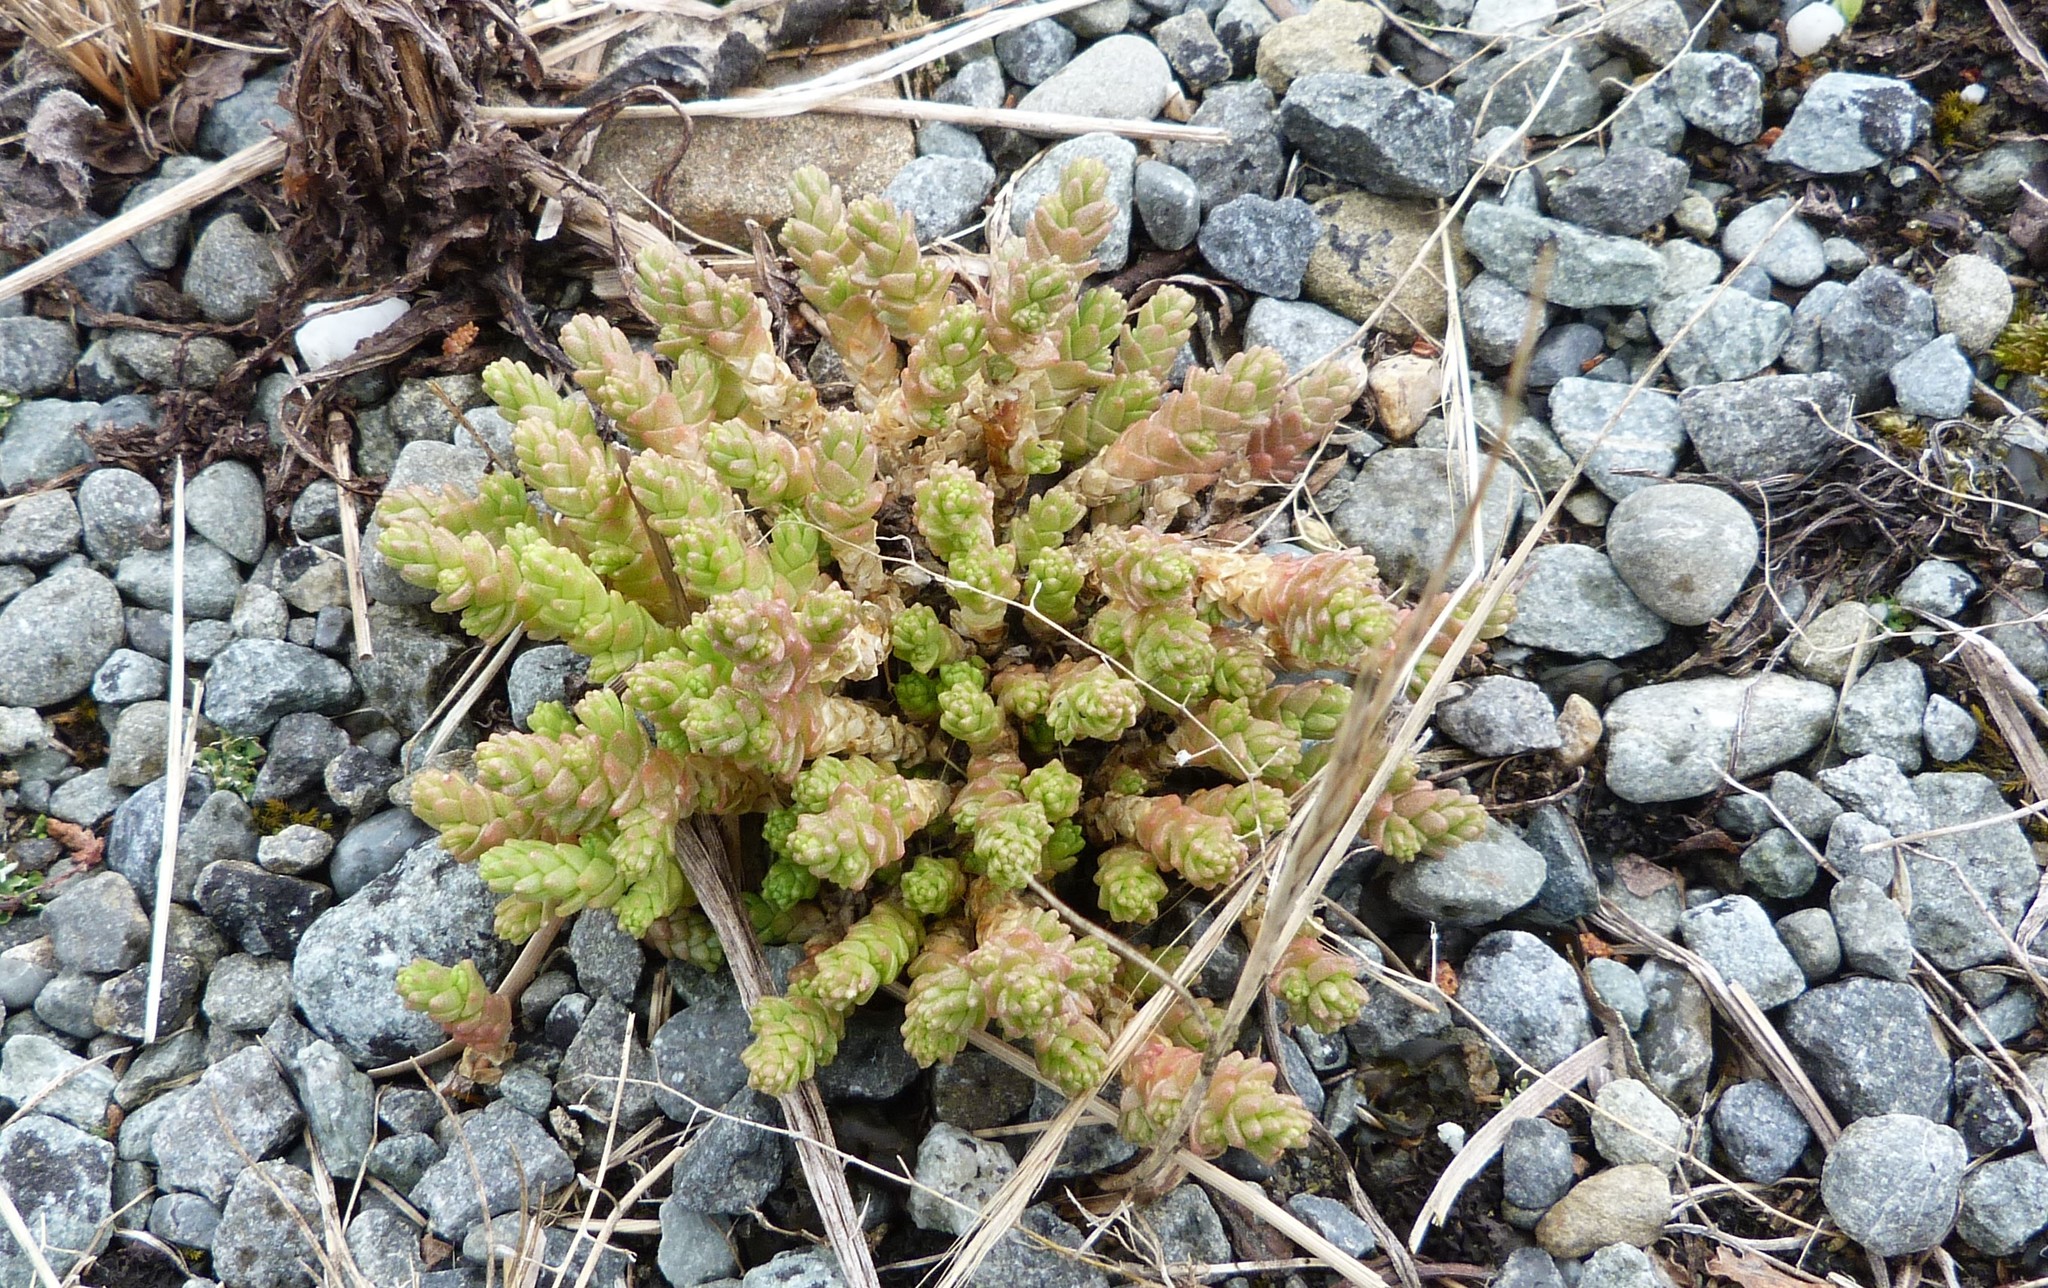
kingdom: Plantae
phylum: Tracheophyta
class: Magnoliopsida
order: Saxifragales
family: Crassulaceae
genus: Sedum
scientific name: Sedum acre
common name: Biting stonecrop
